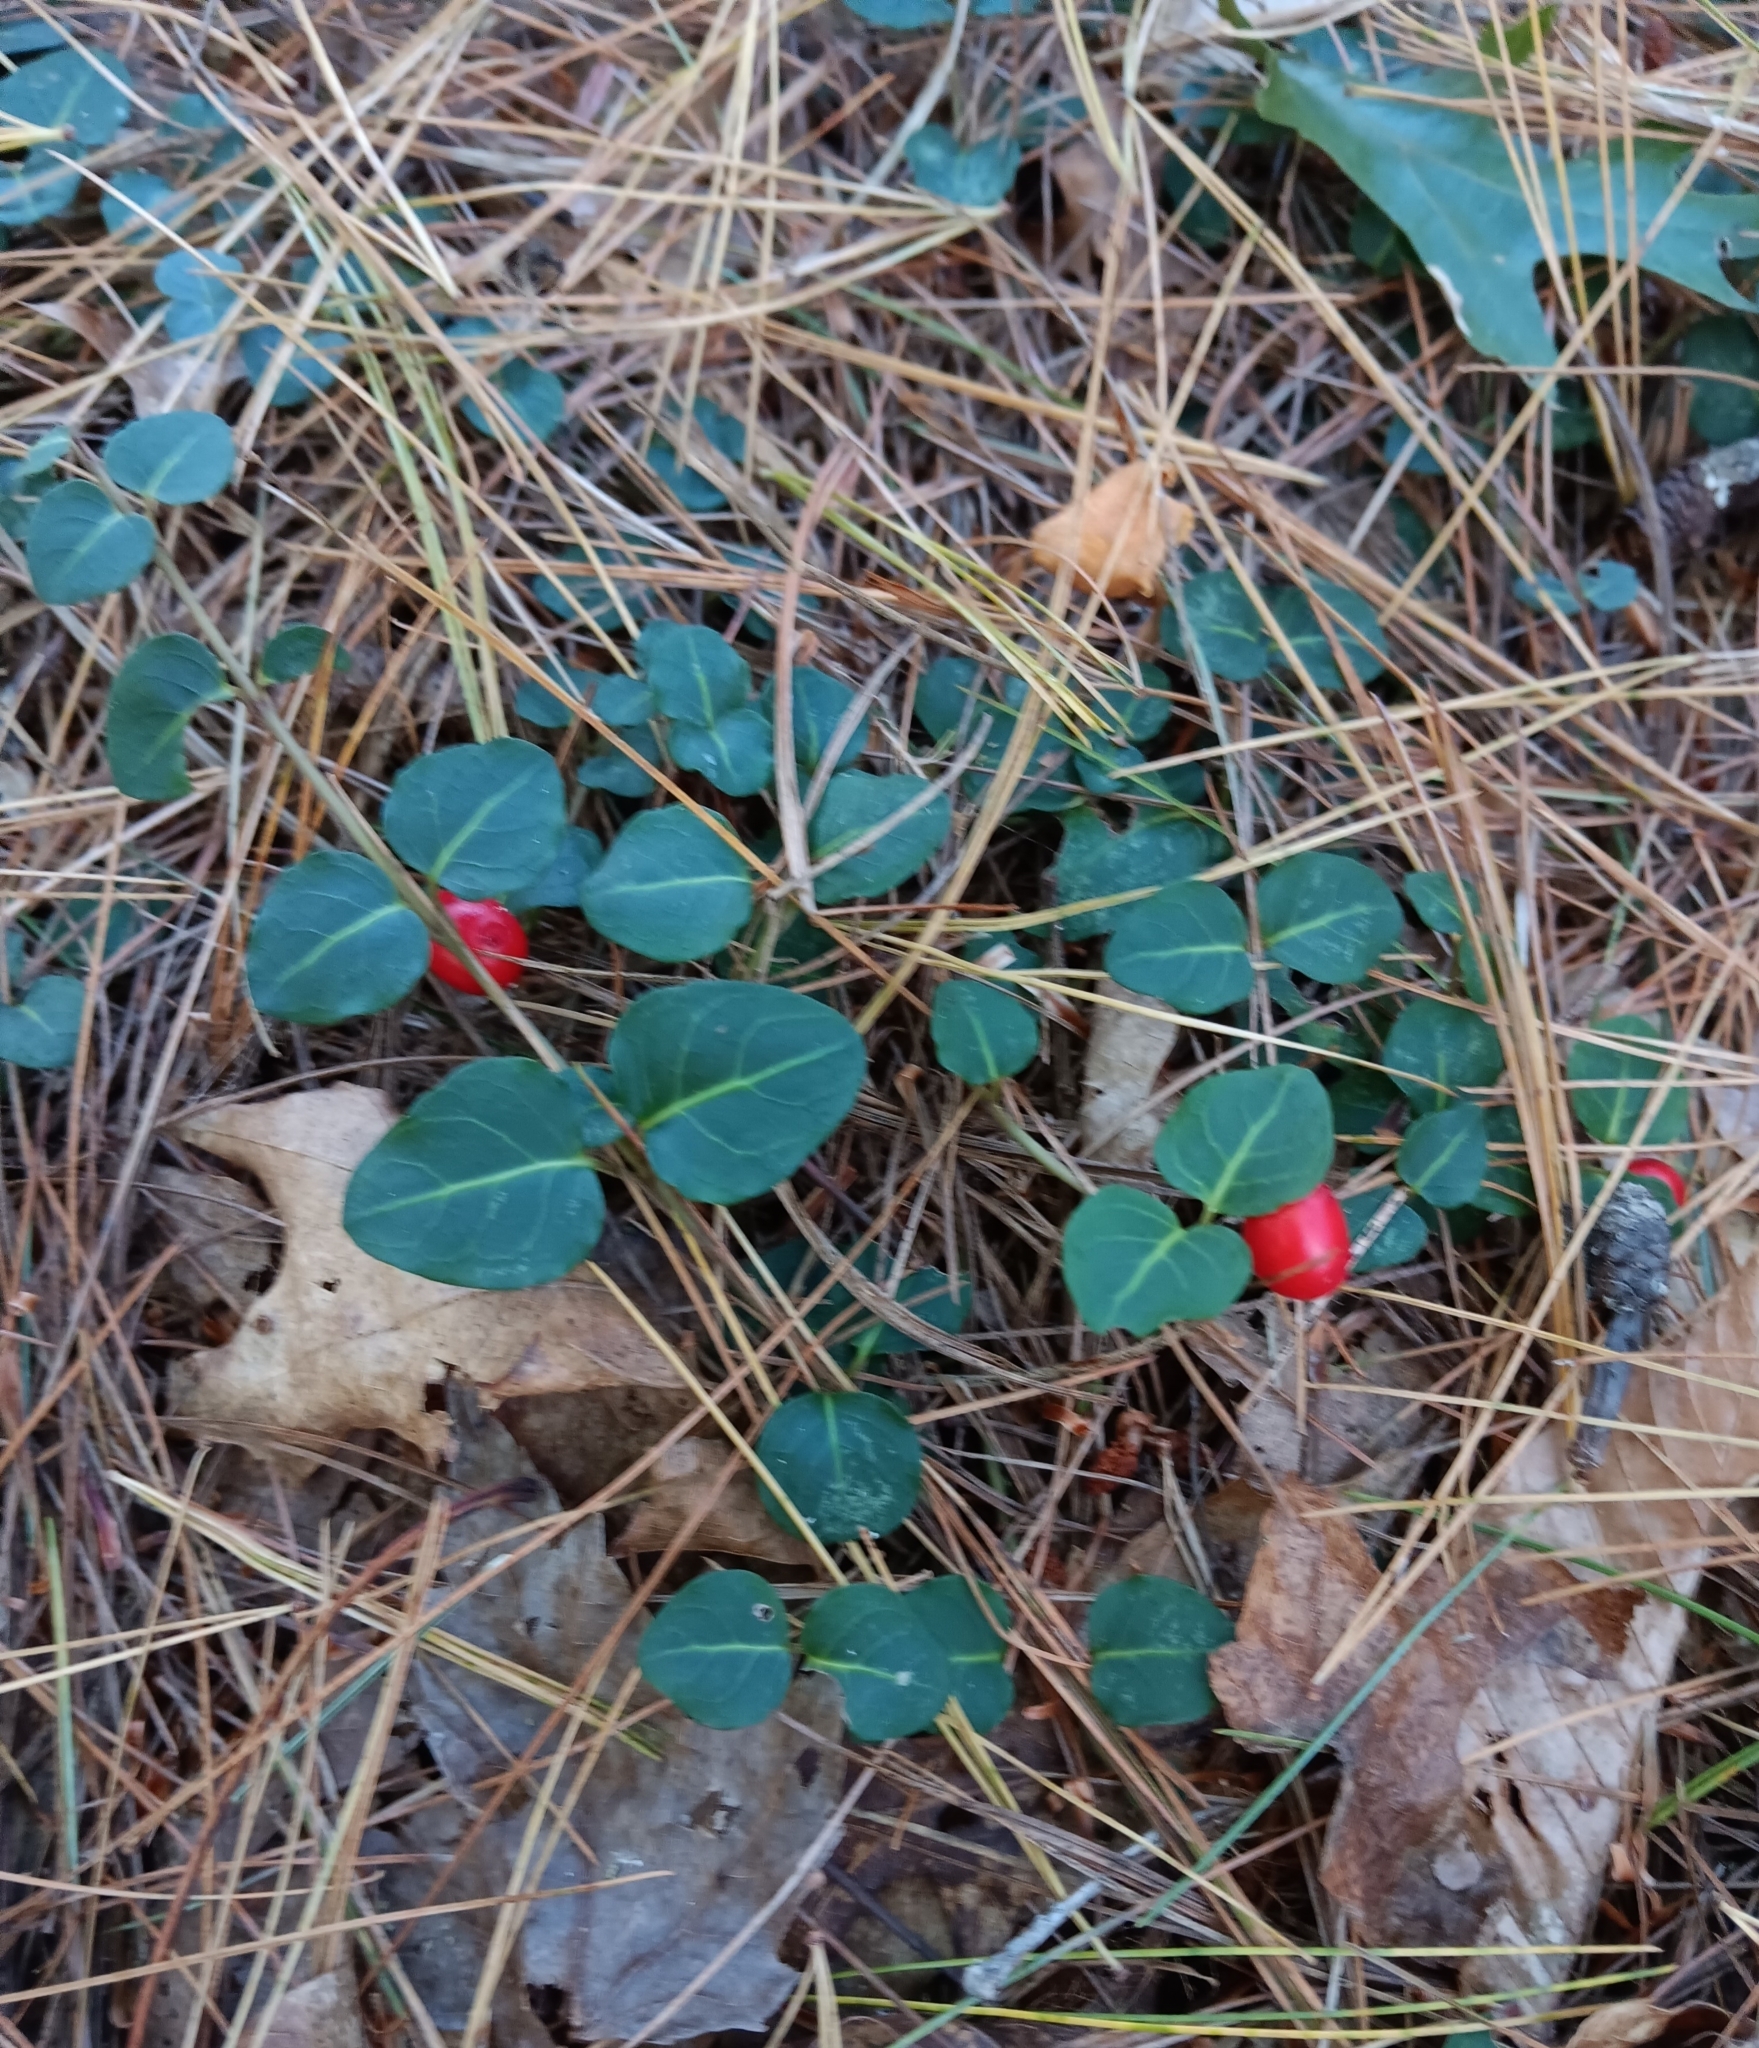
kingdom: Plantae
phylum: Tracheophyta
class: Magnoliopsida
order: Gentianales
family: Rubiaceae
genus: Mitchella
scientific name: Mitchella repens
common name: Partridge-berry
